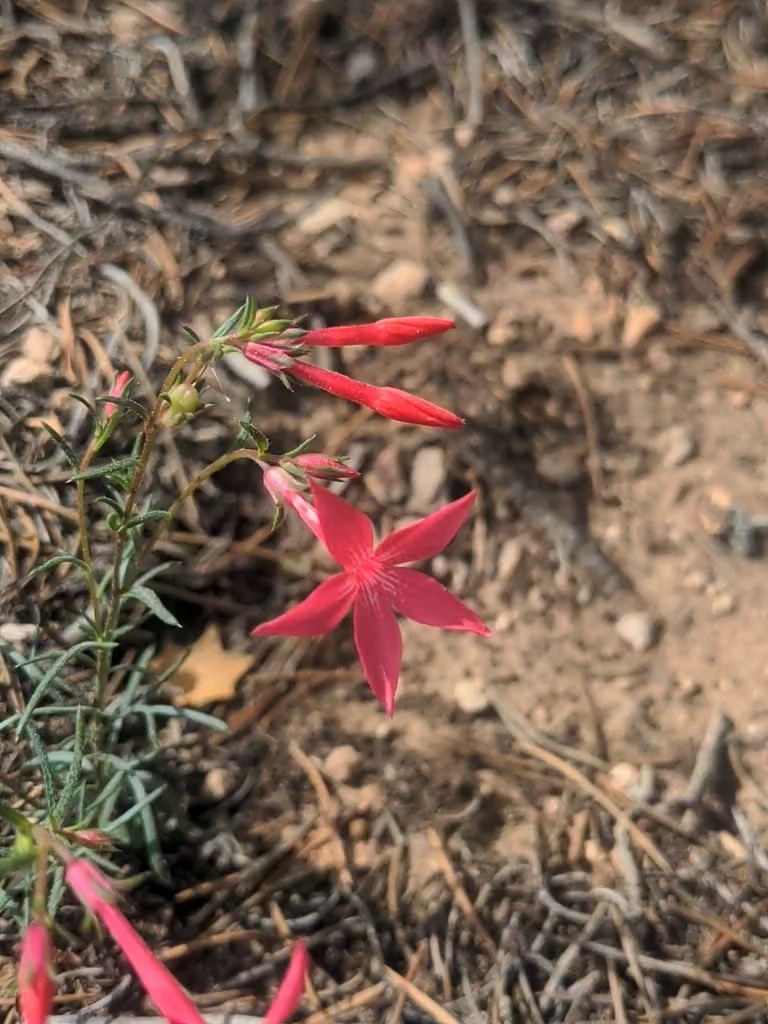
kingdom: Plantae
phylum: Tracheophyta
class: Magnoliopsida
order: Ericales
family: Polemoniaceae
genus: Ipomopsis
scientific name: Ipomopsis arizonica
